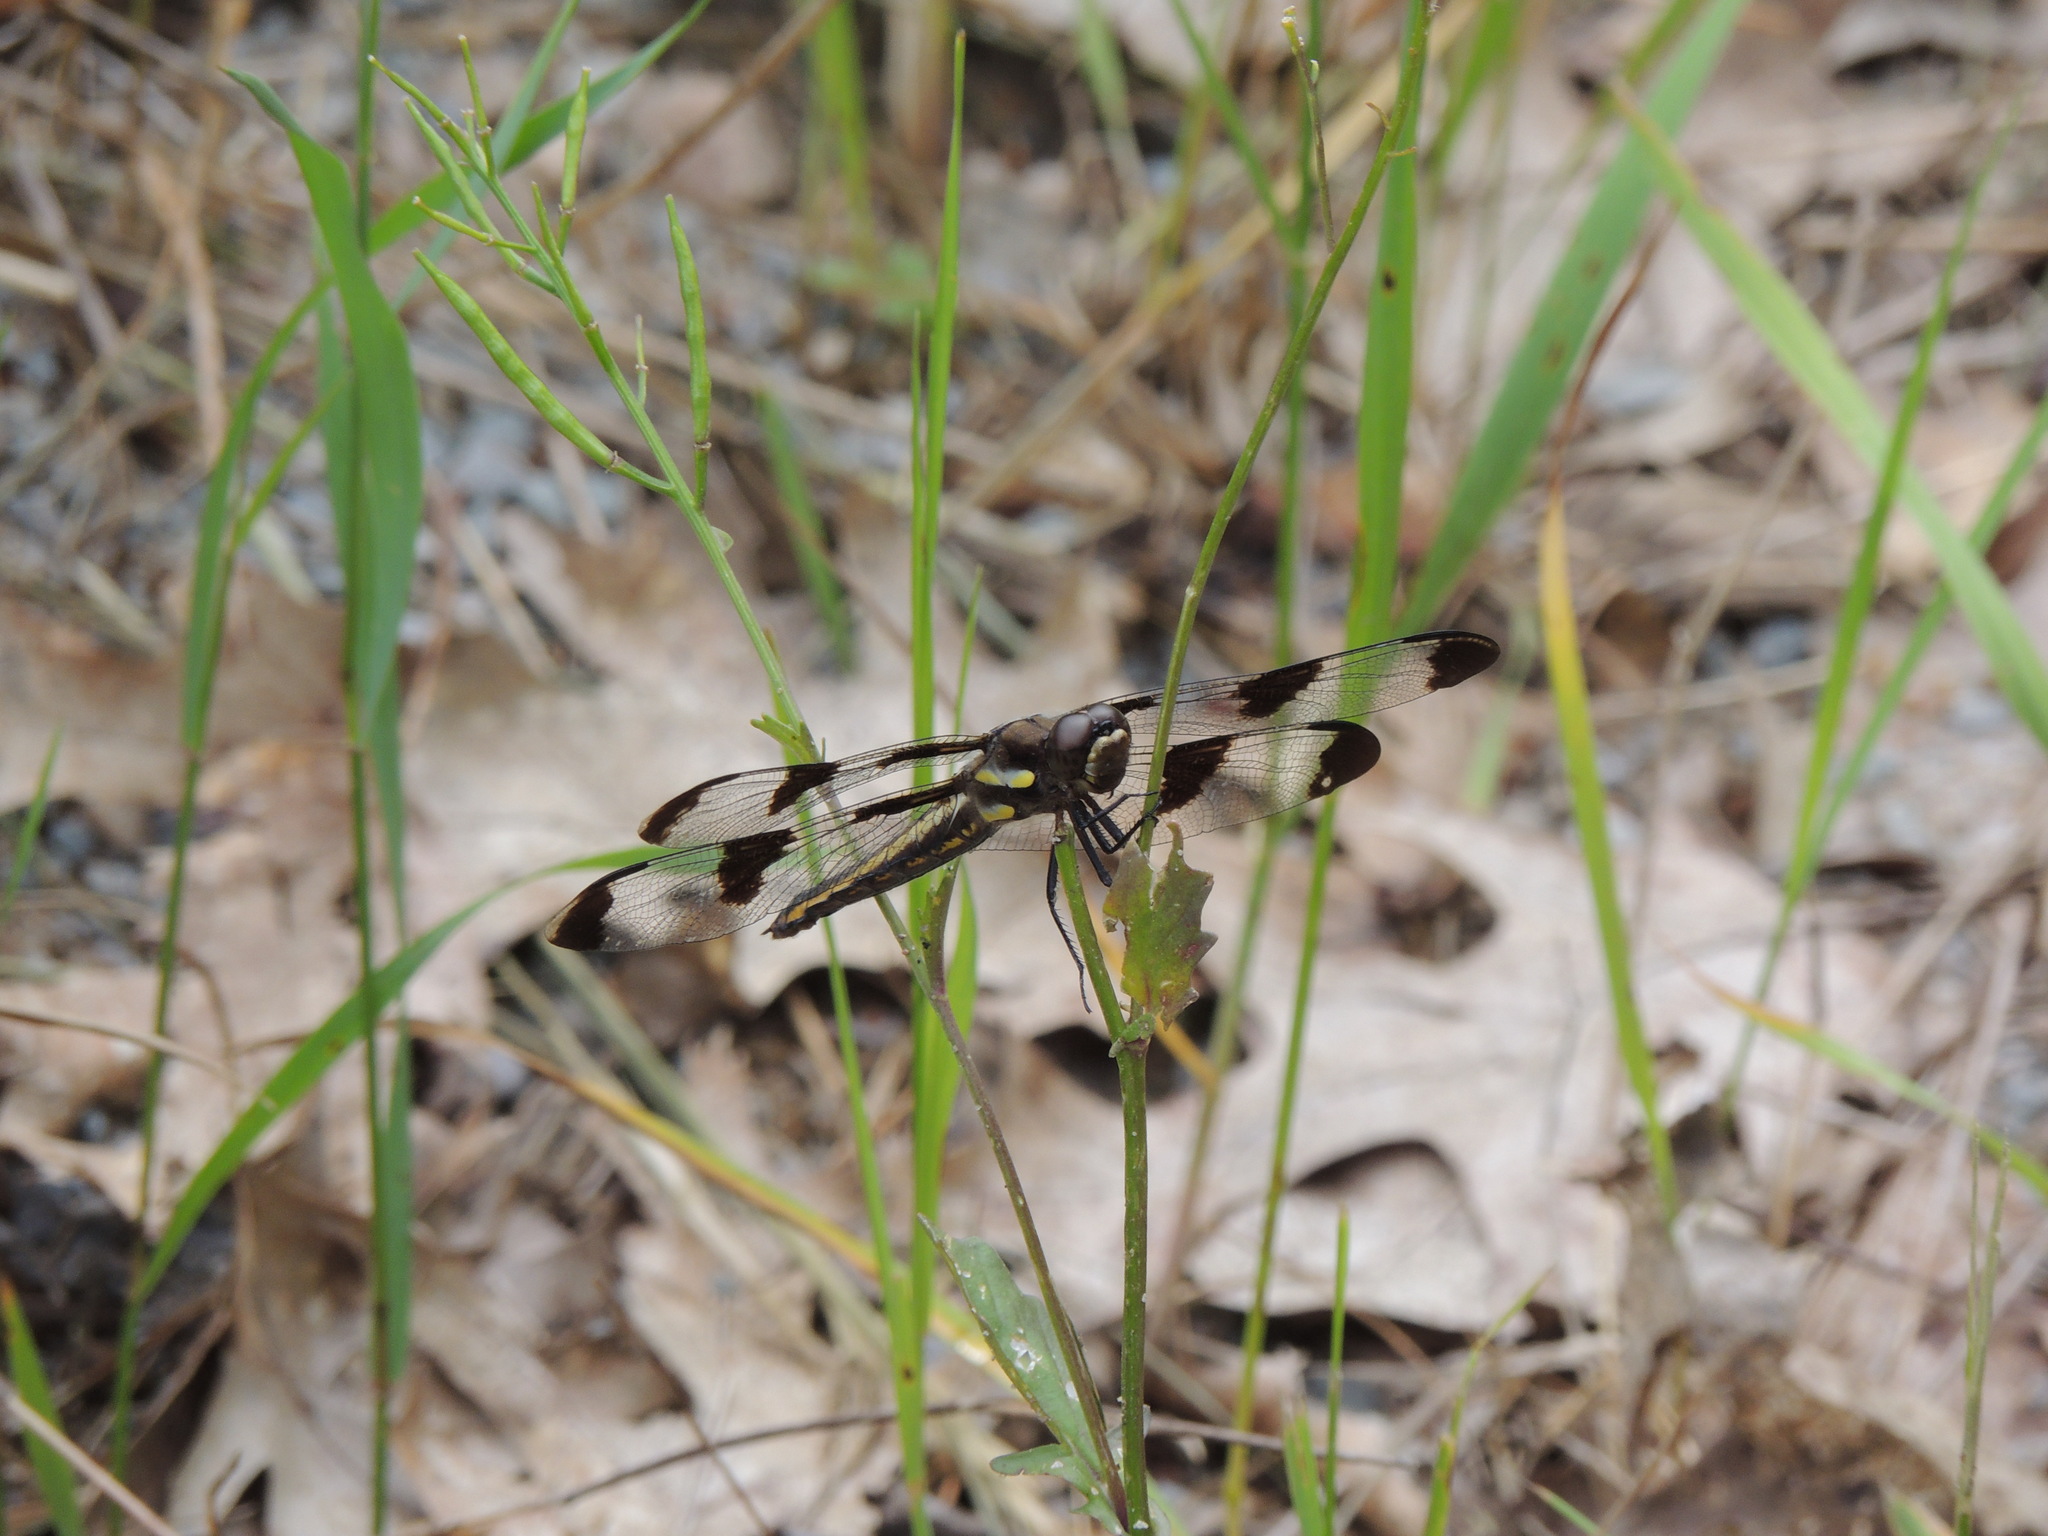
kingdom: Animalia
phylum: Arthropoda
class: Insecta
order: Odonata
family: Libellulidae
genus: Libellula
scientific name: Libellula pulchella
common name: Twelve-spotted skimmer
